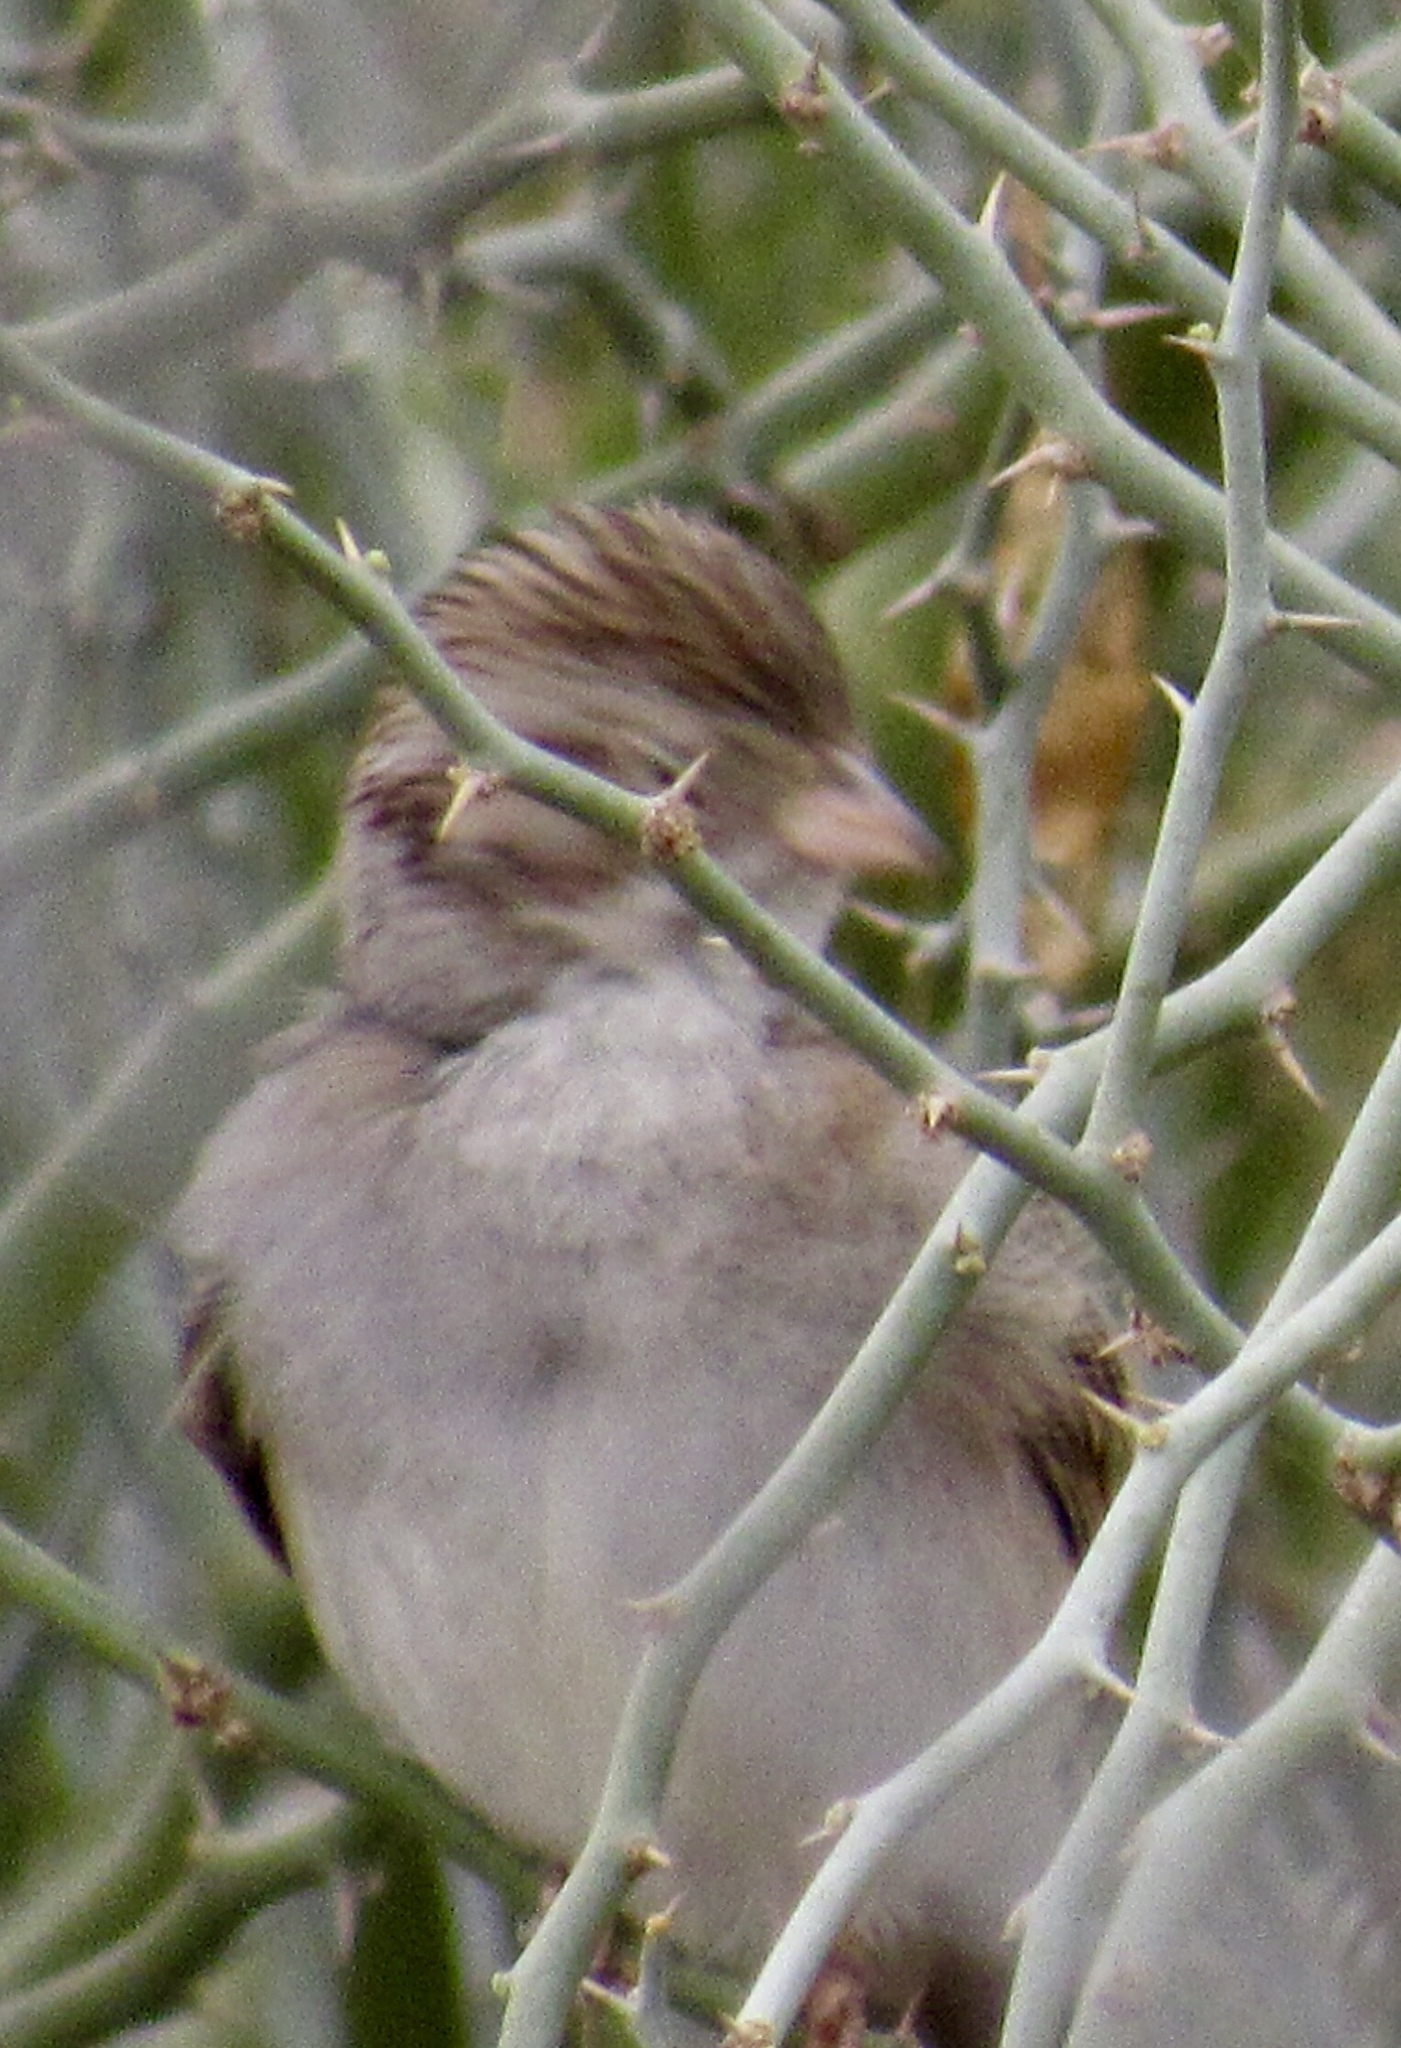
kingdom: Animalia
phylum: Chordata
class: Aves
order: Passeriformes
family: Passerellidae
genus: Spizella
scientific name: Spizella breweri
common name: Brewer's sparrow
